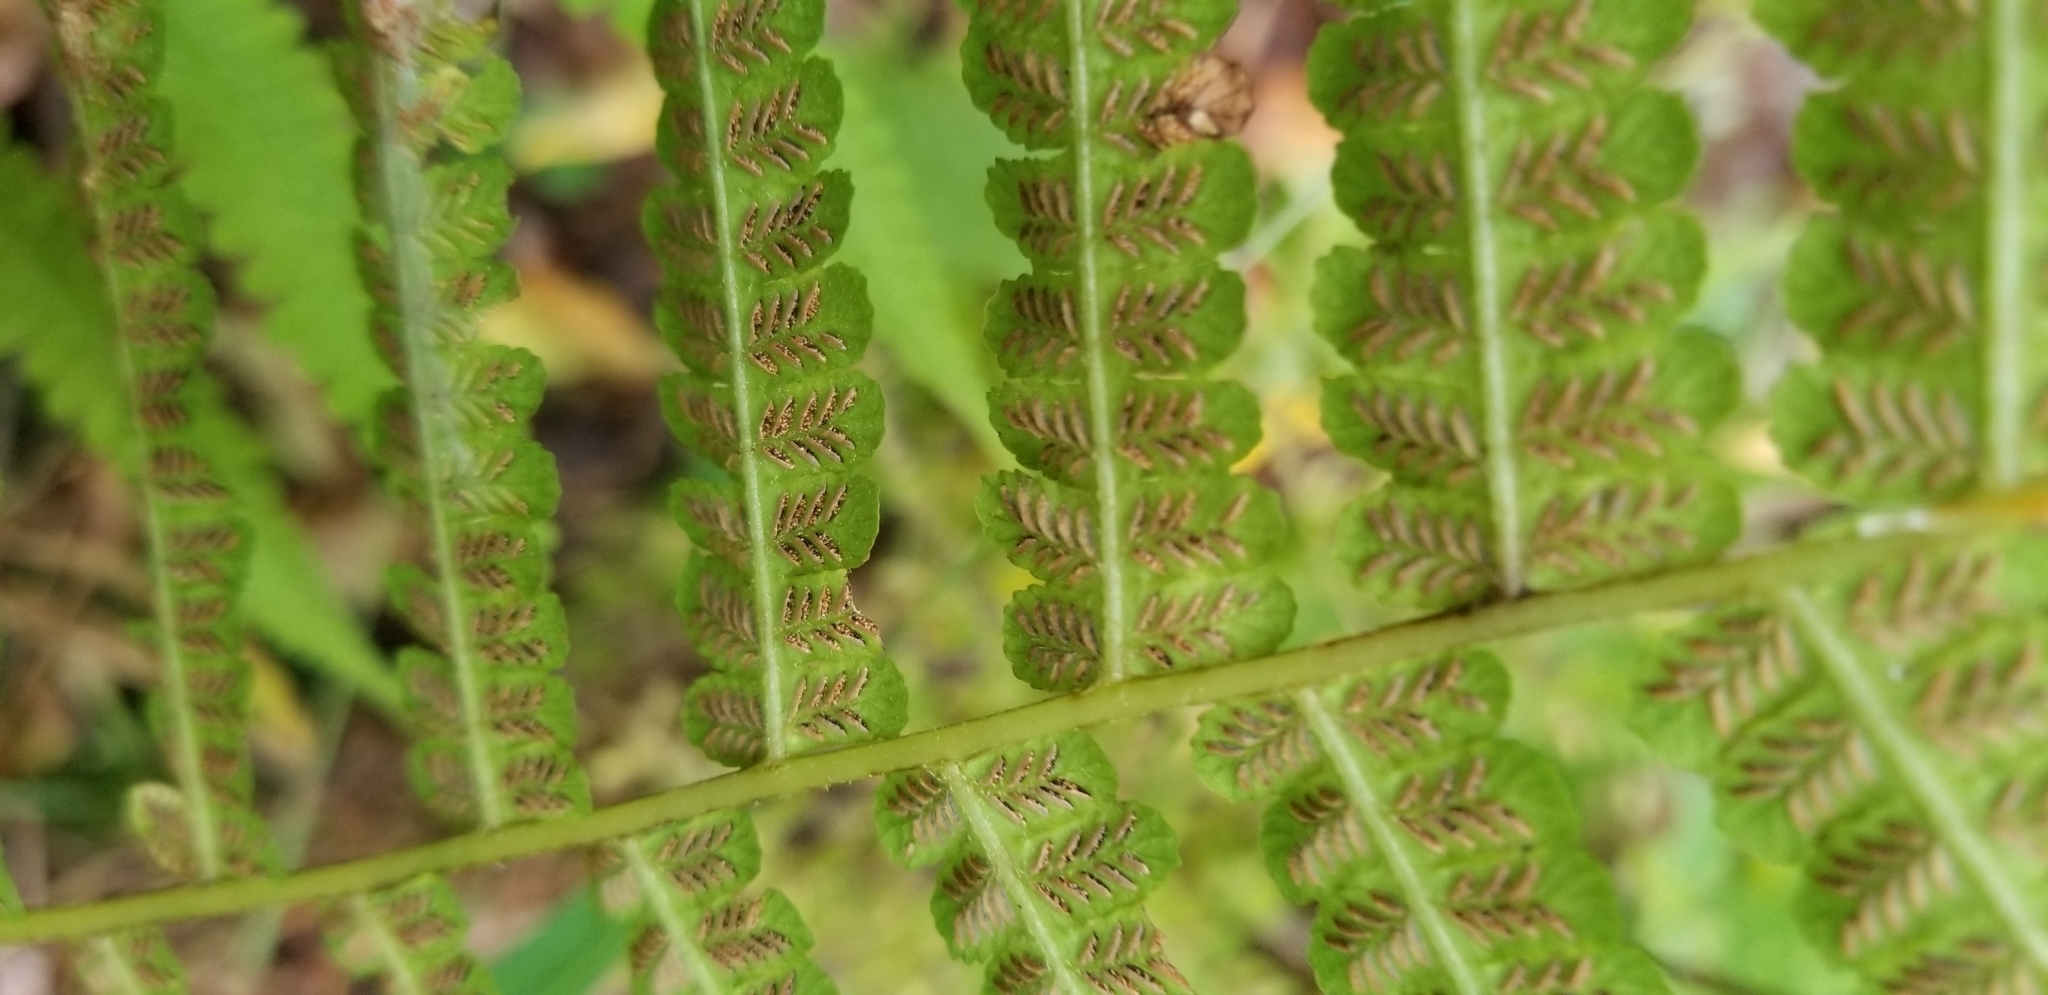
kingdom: Plantae
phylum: Tracheophyta
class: Polypodiopsida
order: Polypodiales
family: Athyriaceae
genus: Deparia
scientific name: Deparia acrostichoides
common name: Silver false spleenwort
